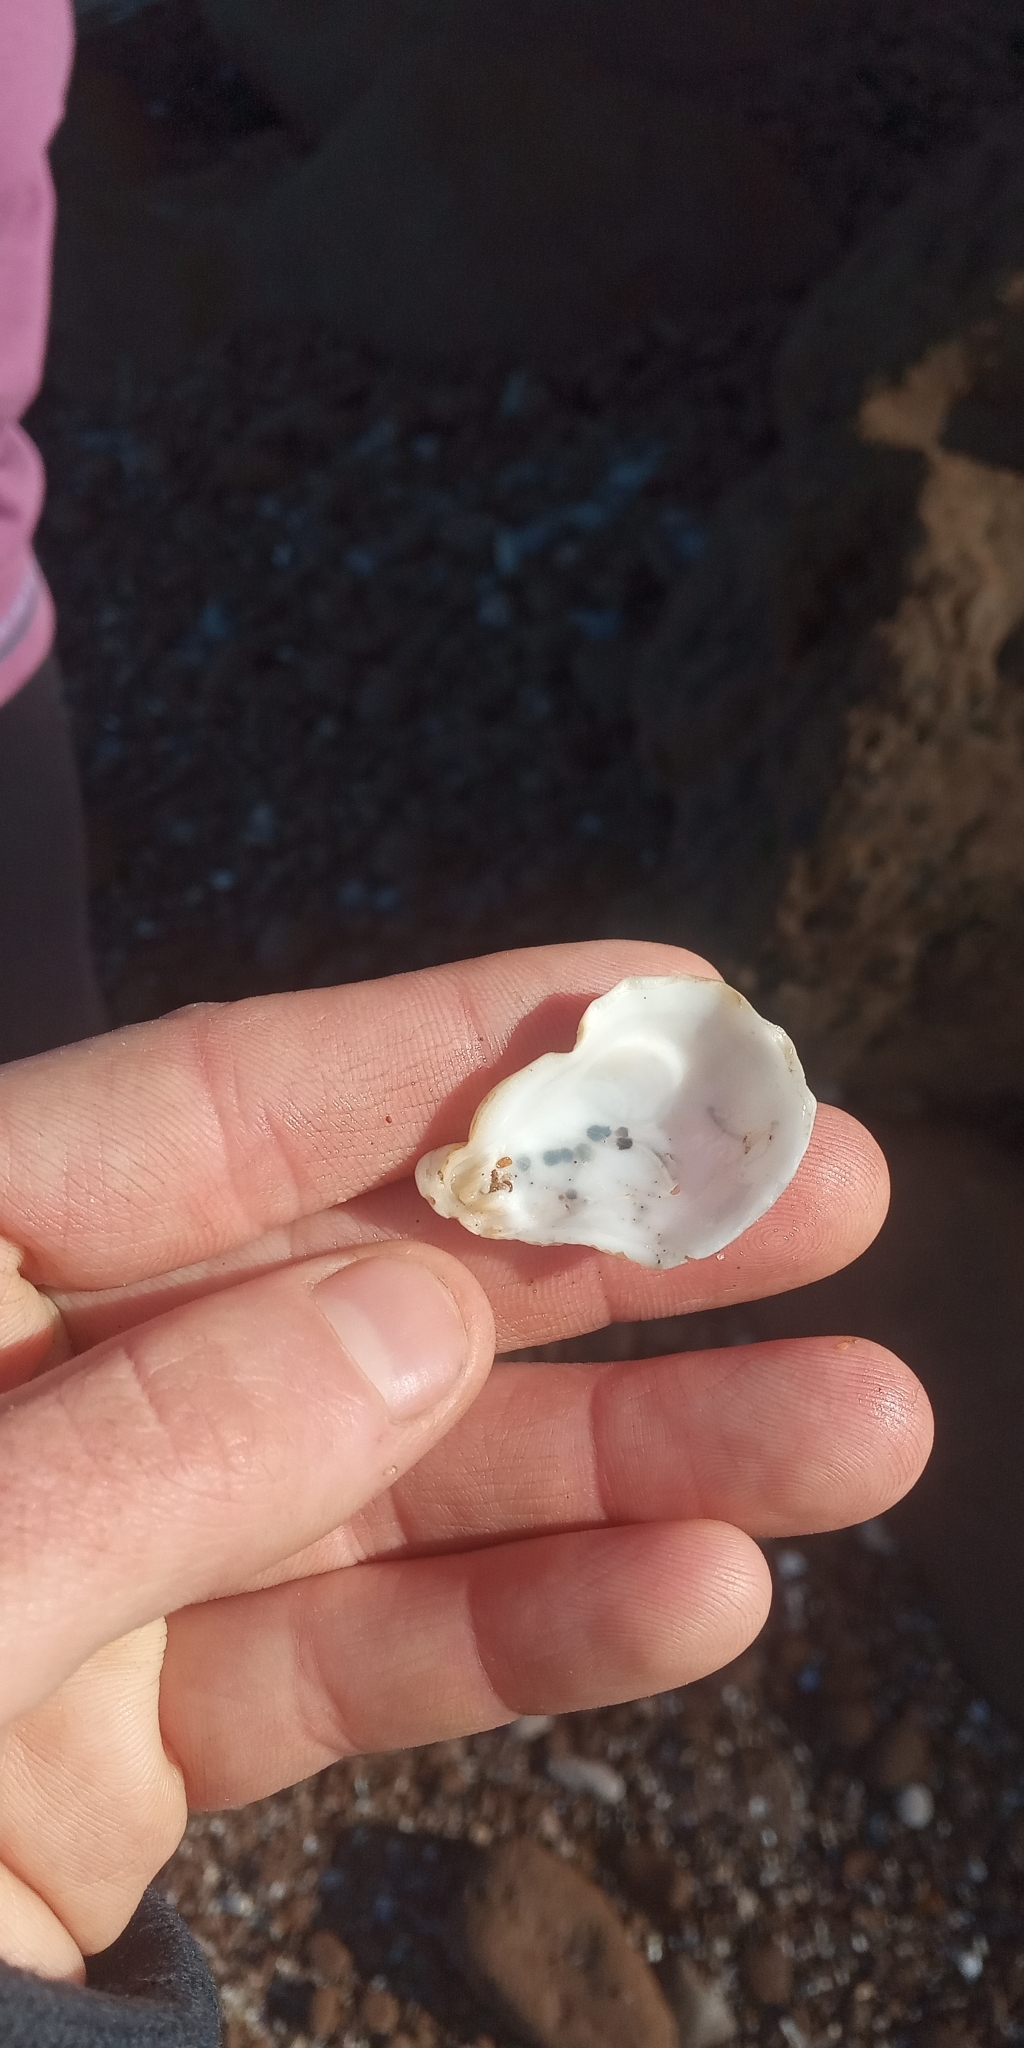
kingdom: Animalia
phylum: Mollusca
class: Bivalvia
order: Pectinida
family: Plicatulidae
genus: Plicatula
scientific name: Plicatula gibbosa
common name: Atlantic kitten's paw
